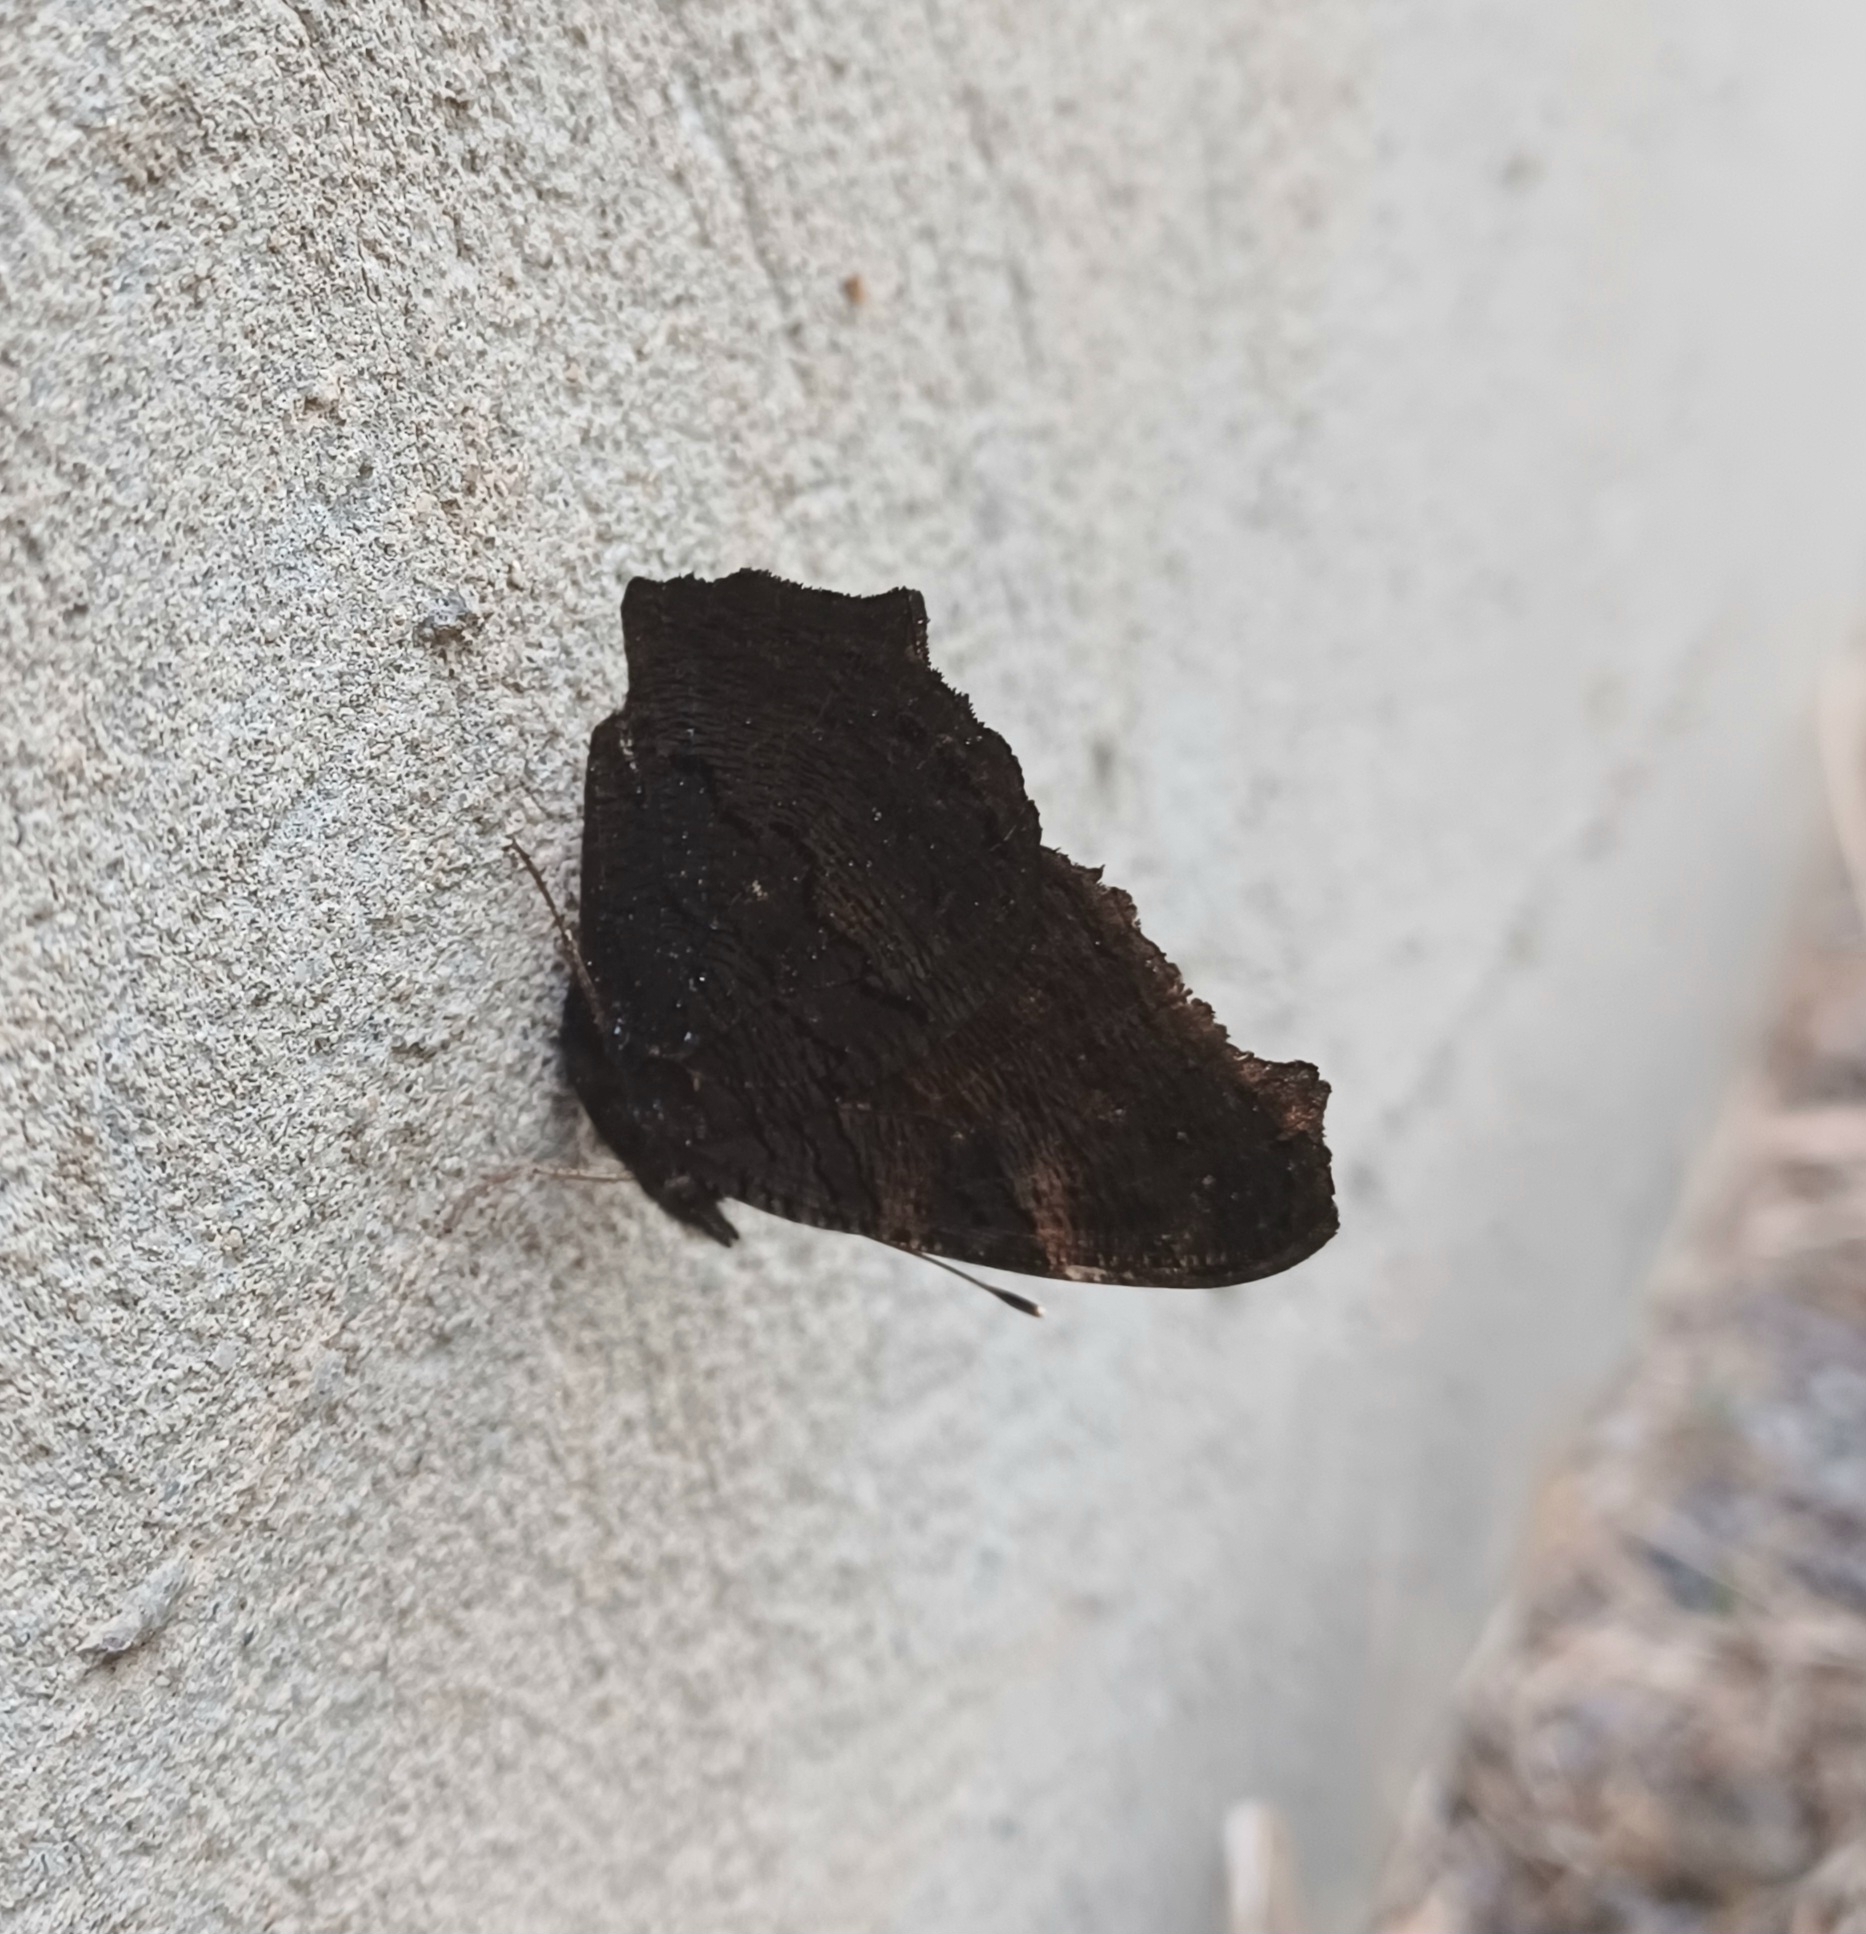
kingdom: Animalia
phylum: Arthropoda
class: Insecta
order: Lepidoptera
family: Nymphalidae
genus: Aglais
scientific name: Aglais io
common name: Peacock
